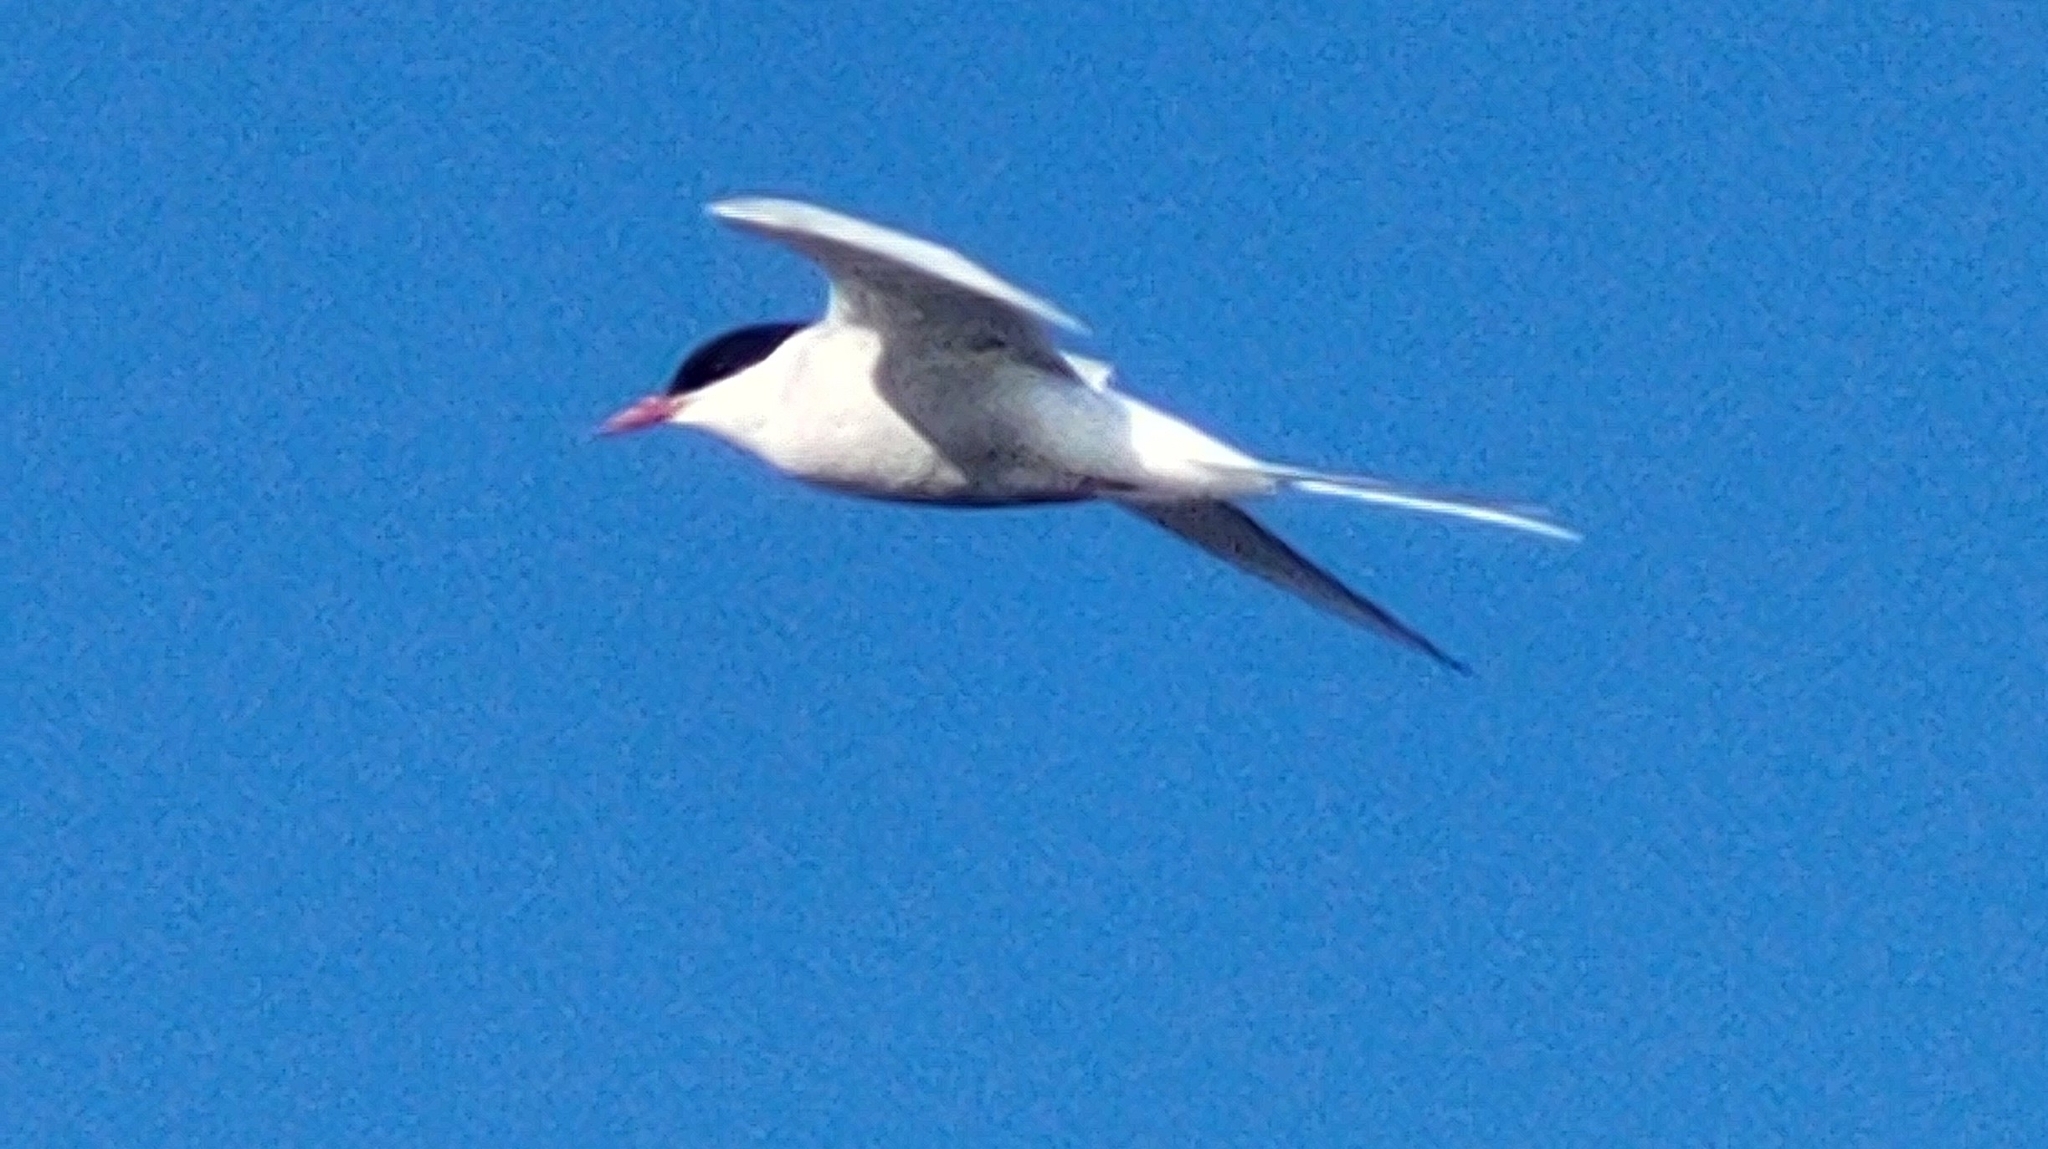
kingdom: Animalia
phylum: Chordata
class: Aves
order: Charadriiformes
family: Laridae
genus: Sterna
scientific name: Sterna paradisaea
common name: Arctic tern
